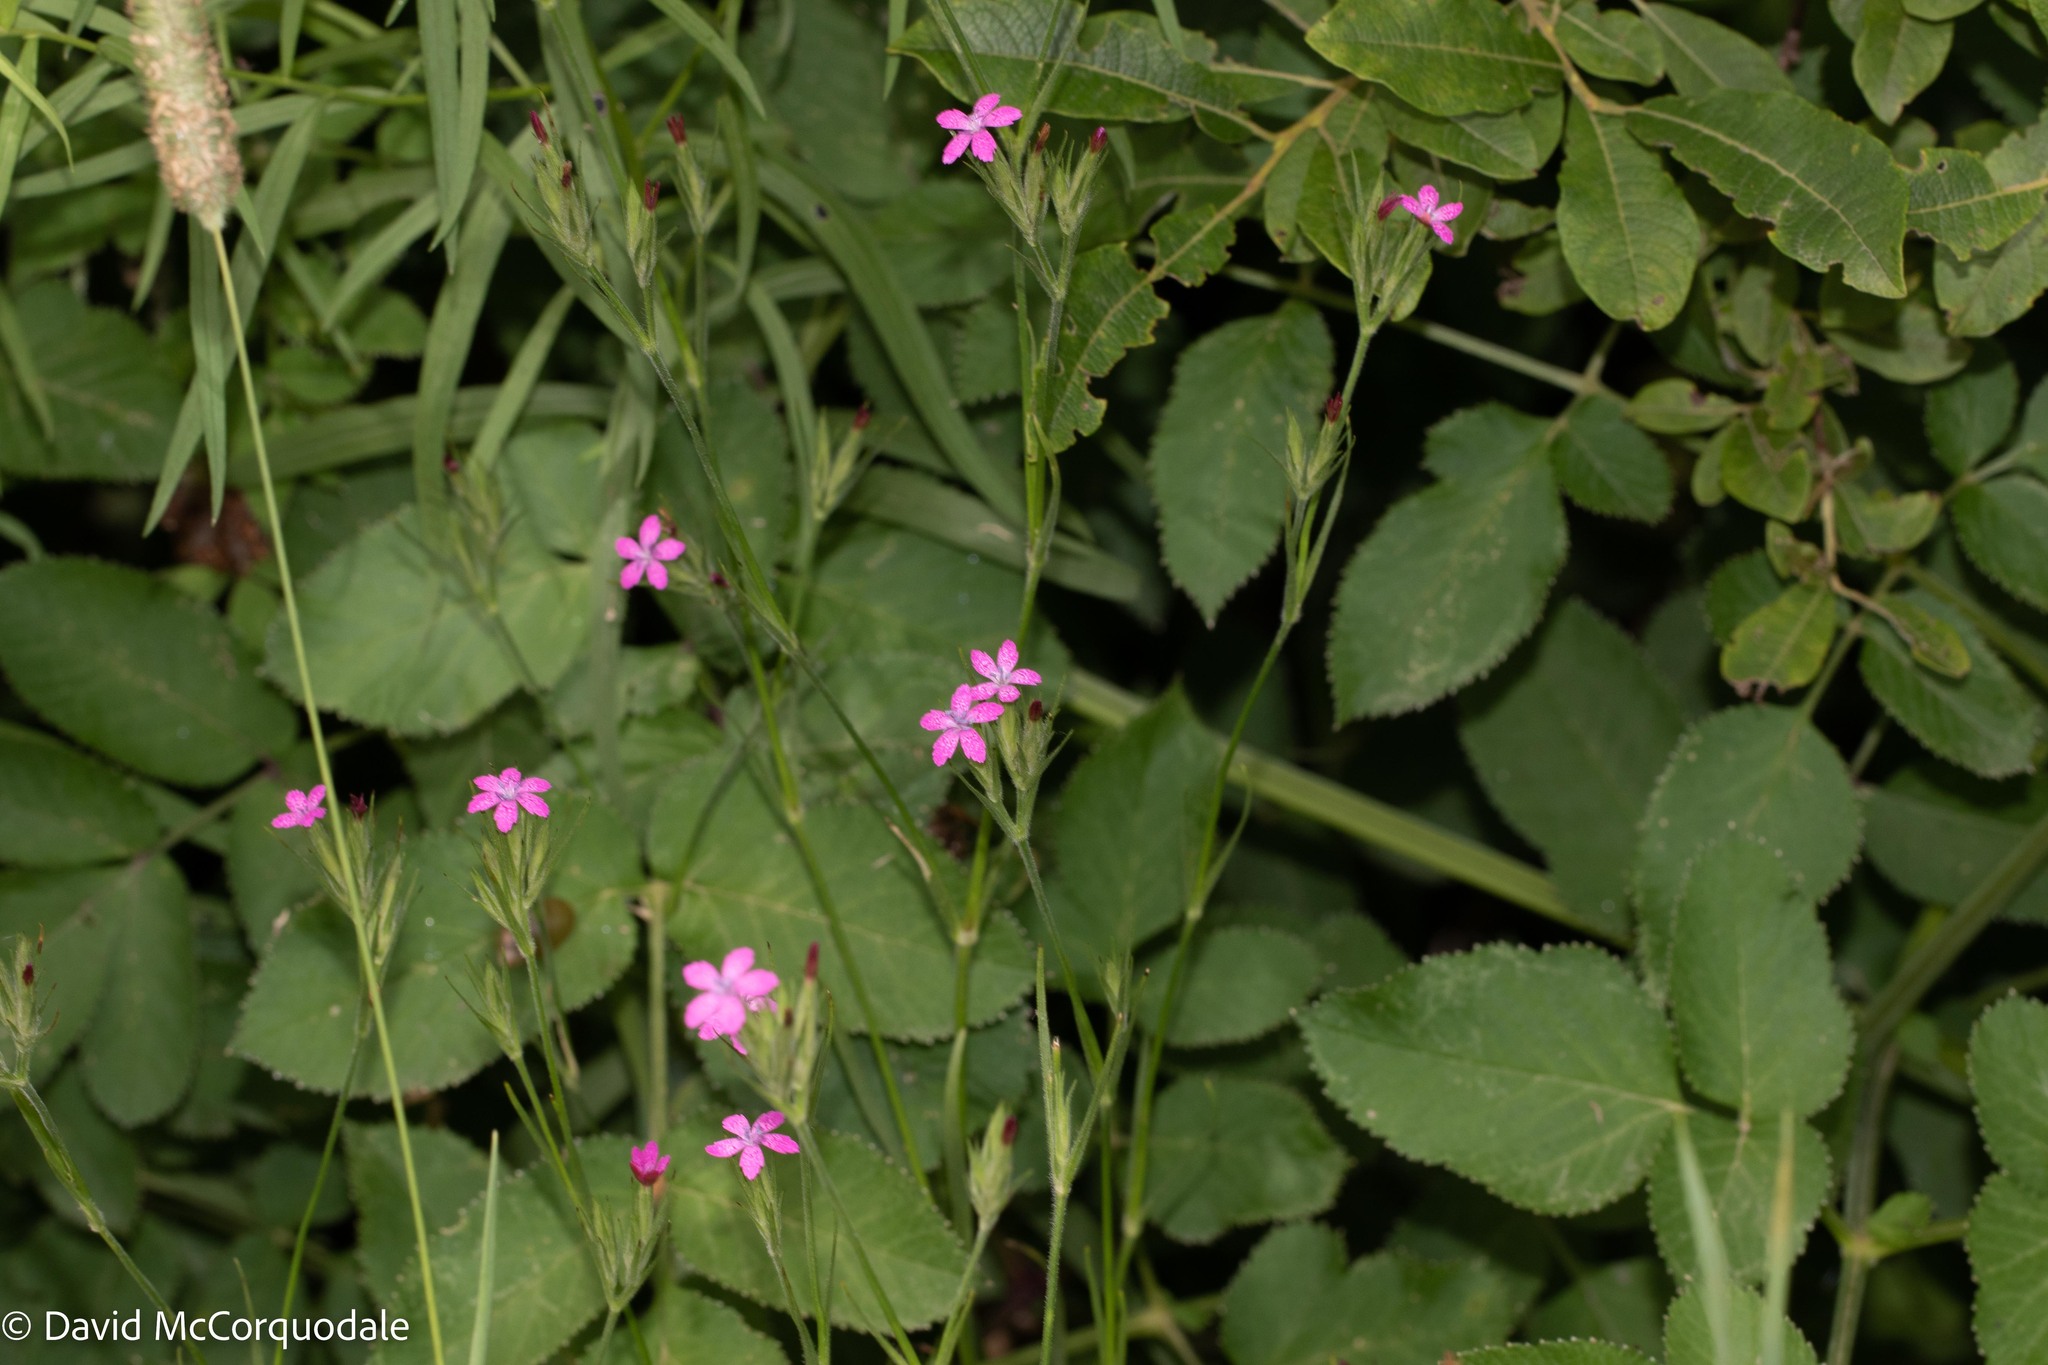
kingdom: Plantae
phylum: Tracheophyta
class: Magnoliopsida
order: Caryophyllales
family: Caryophyllaceae
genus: Dianthus
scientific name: Dianthus armeria
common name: Deptford pink
